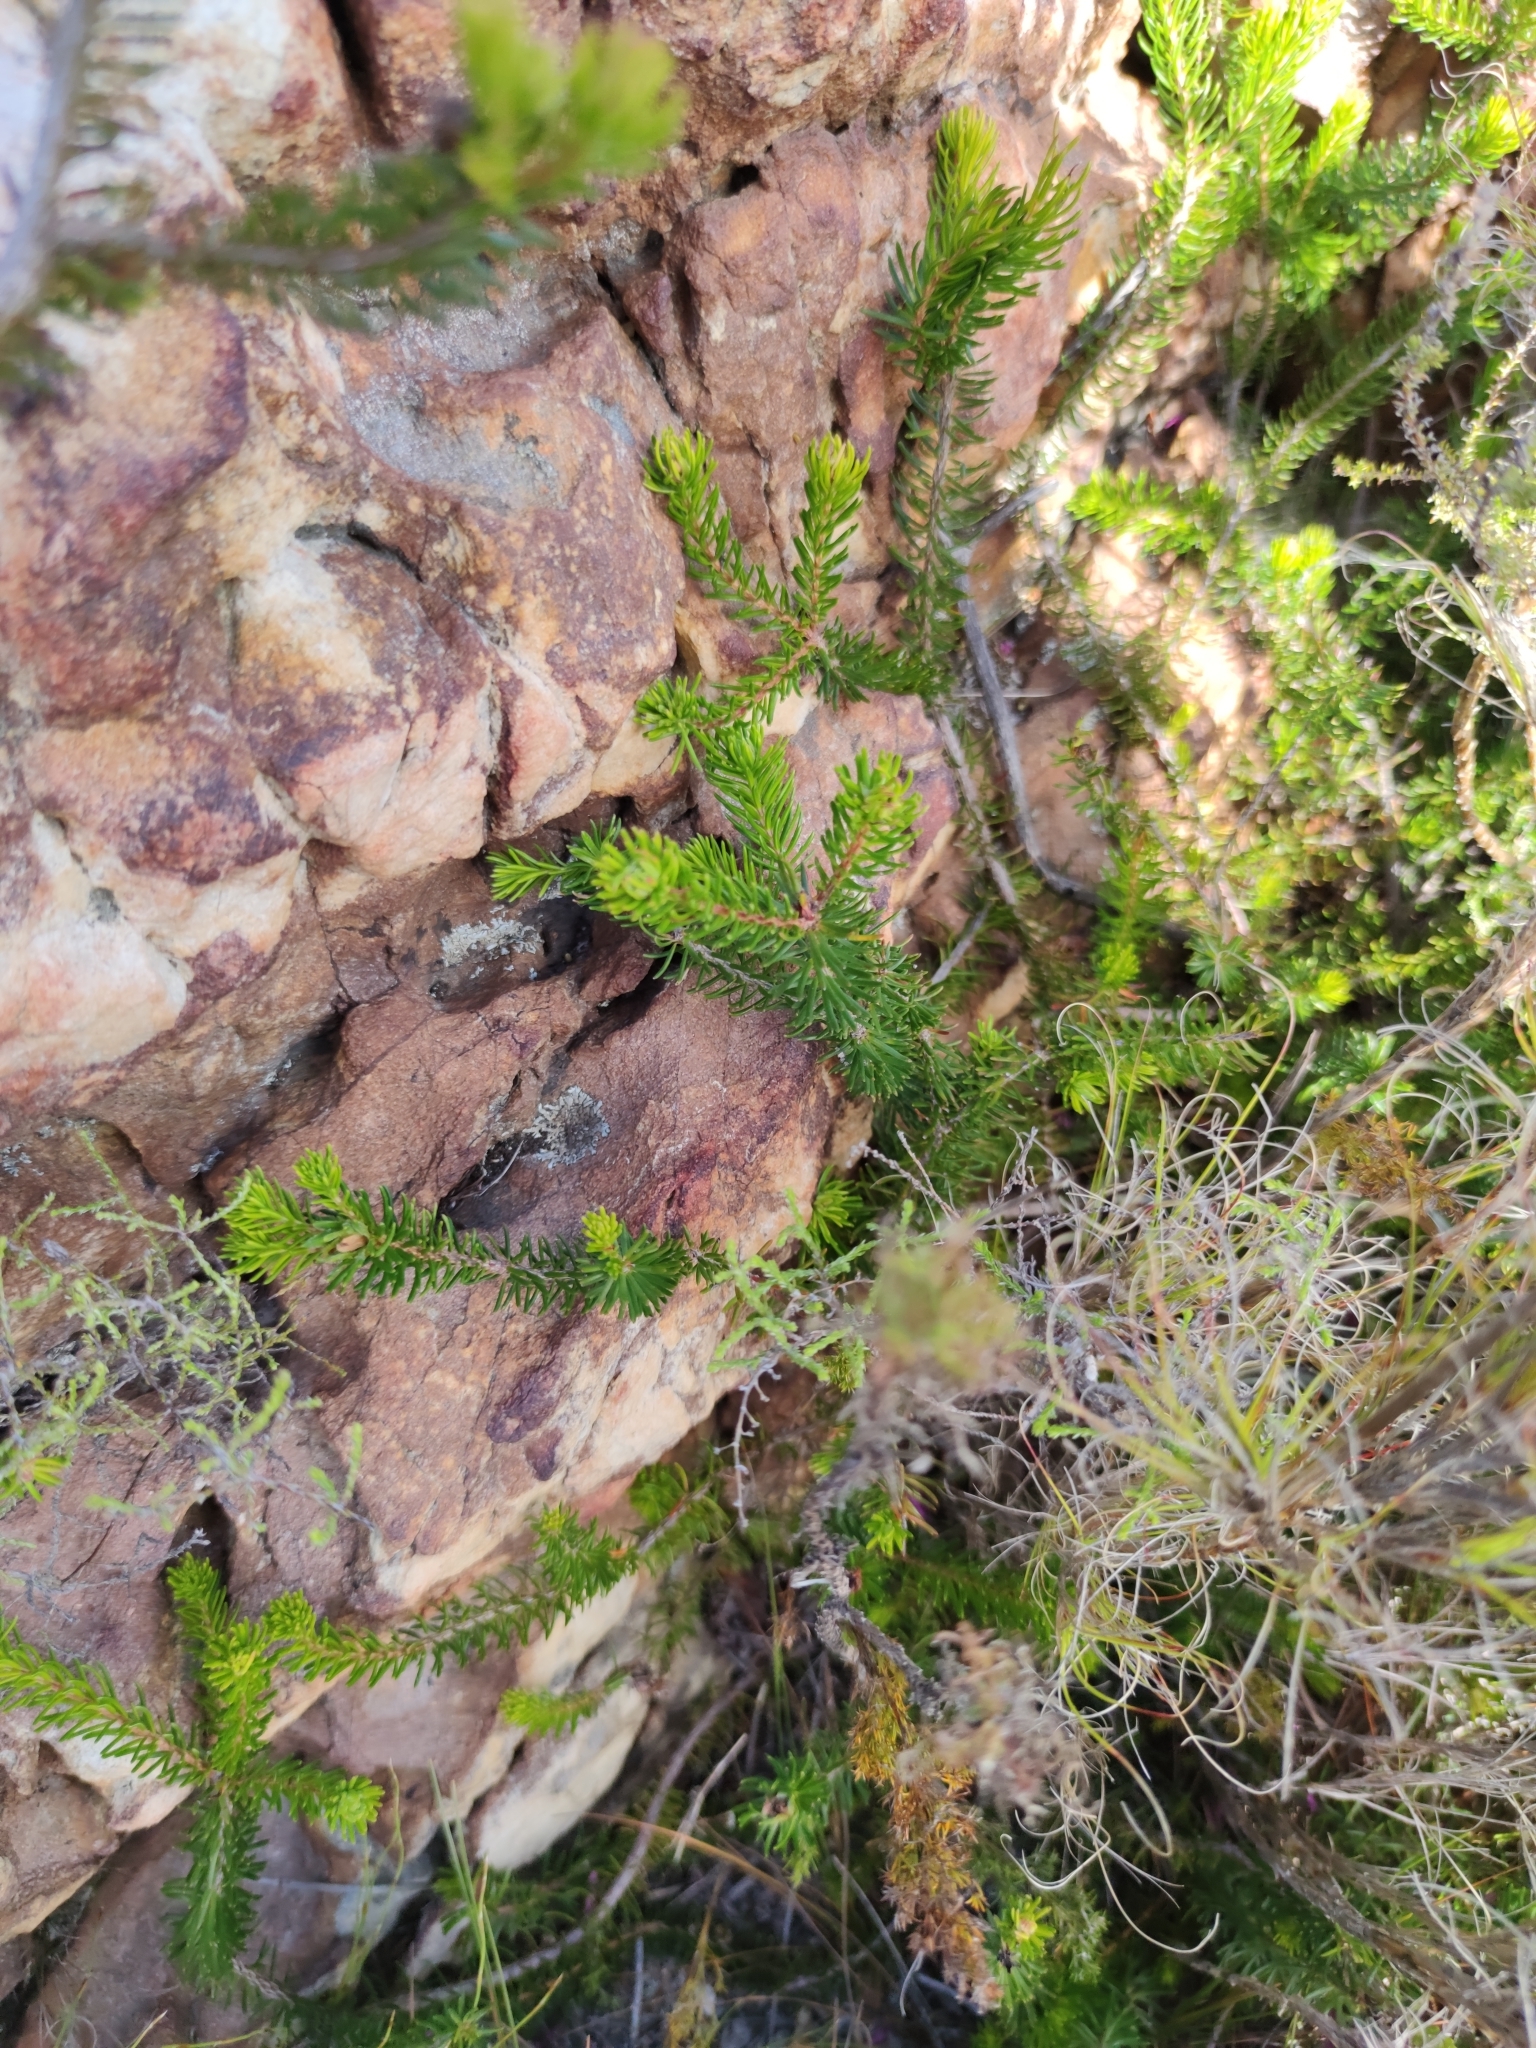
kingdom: Plantae
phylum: Tracheophyta
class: Magnoliopsida
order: Ericales
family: Ericaceae
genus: Erica
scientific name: Erica nevillei
